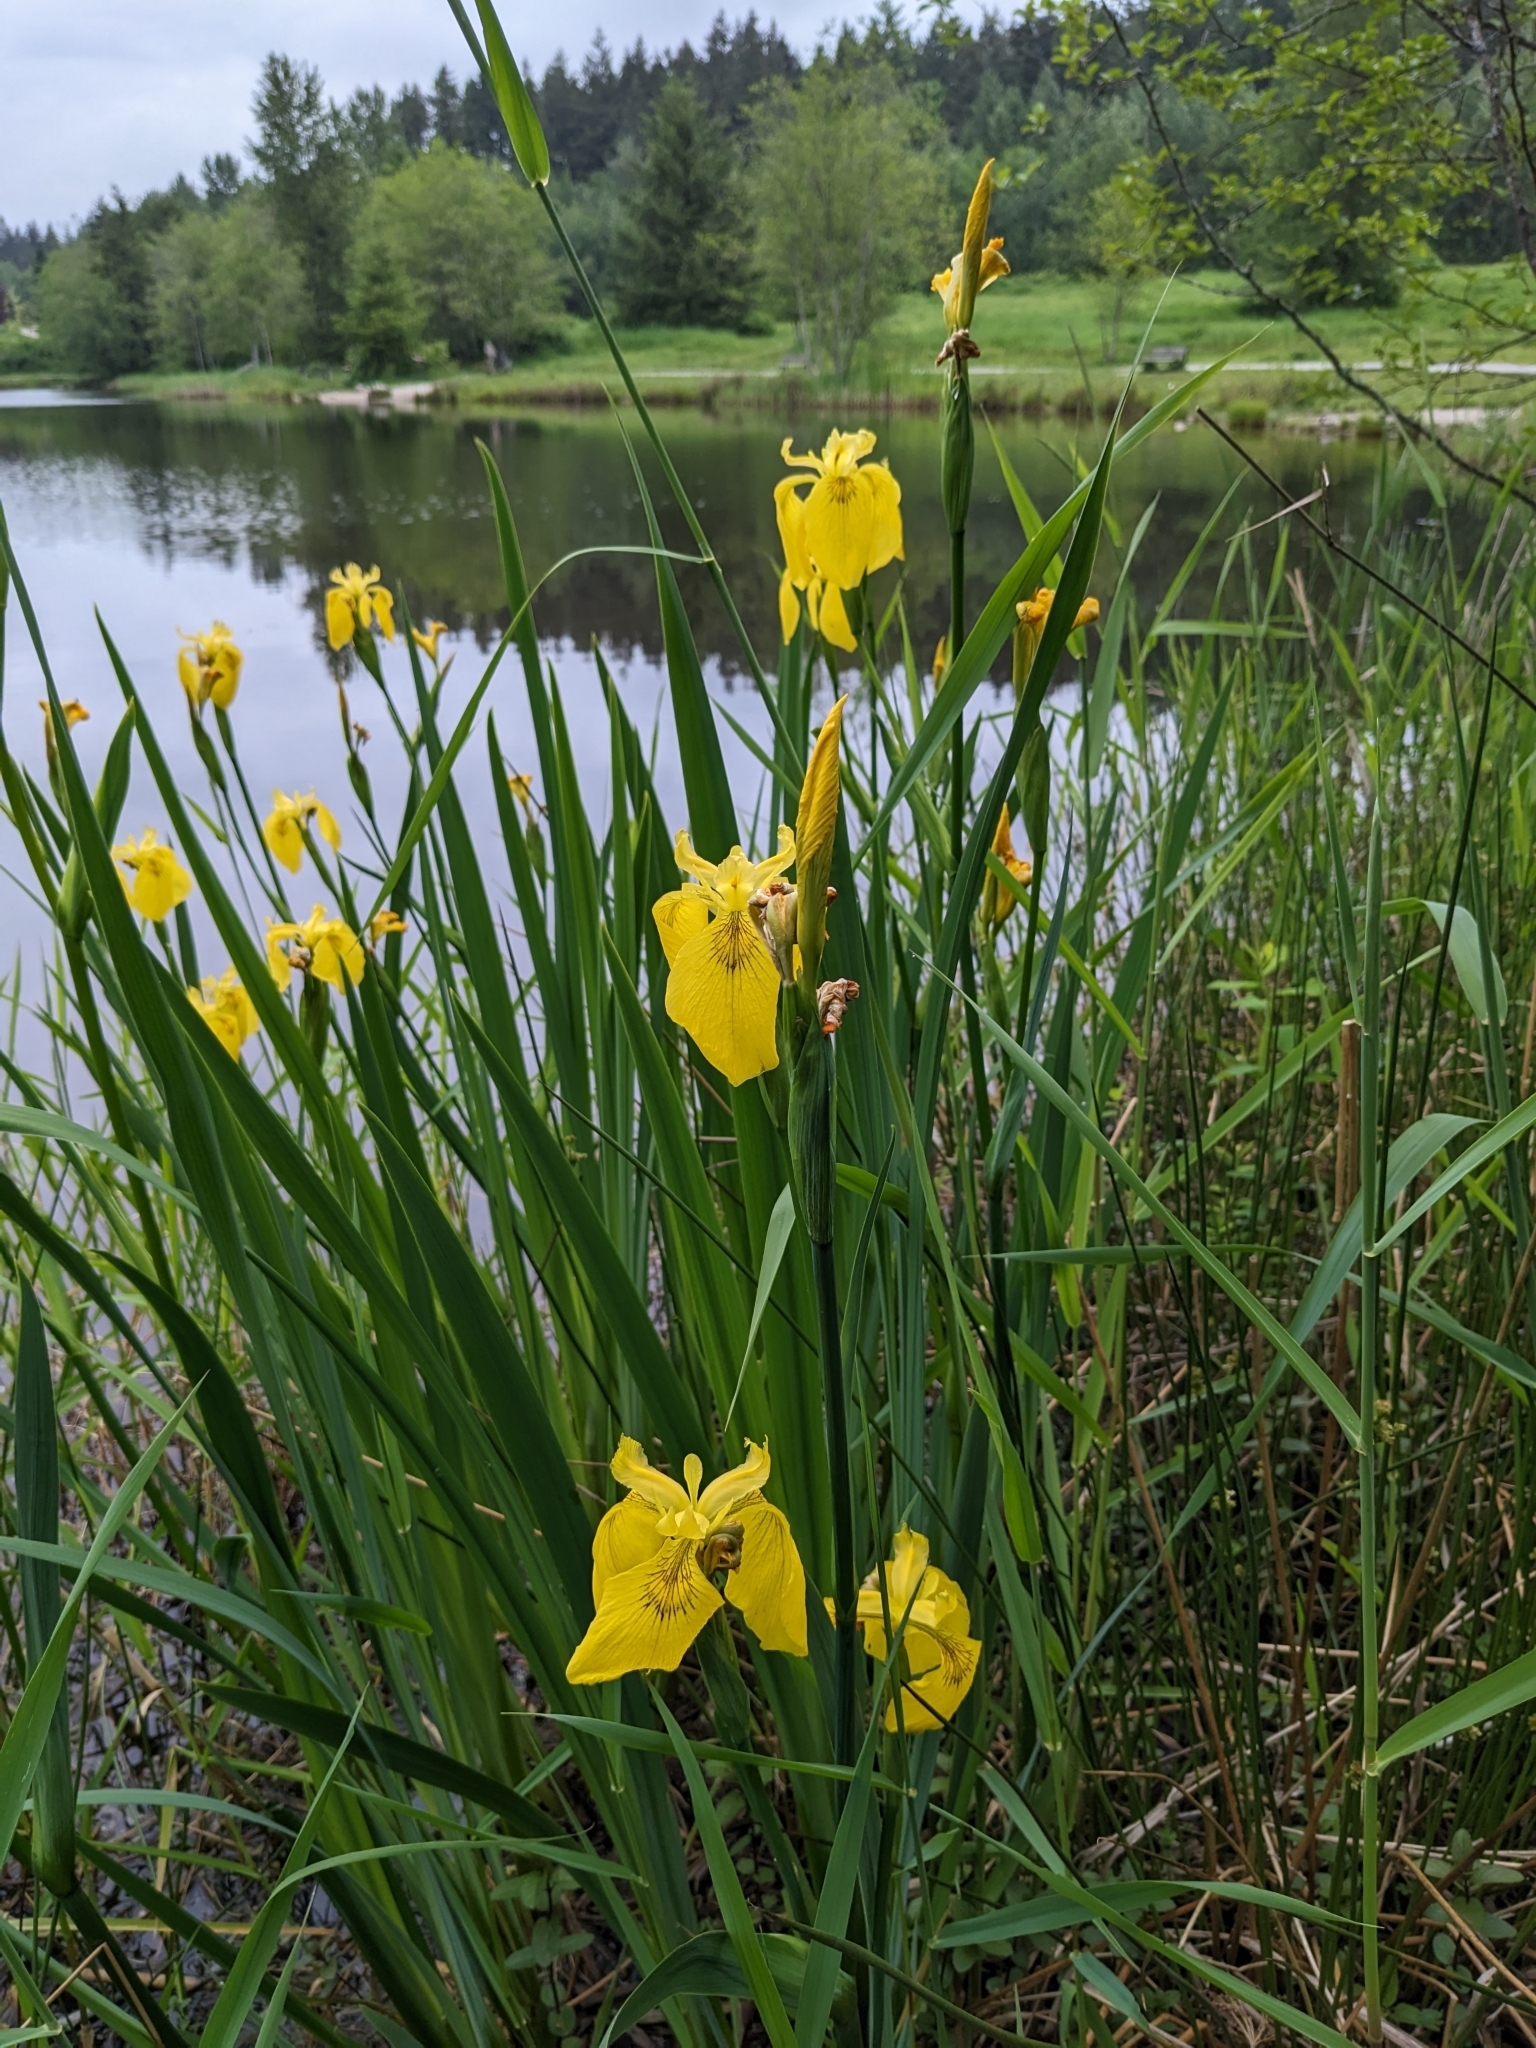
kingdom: Plantae
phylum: Tracheophyta
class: Liliopsida
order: Asparagales
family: Iridaceae
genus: Iris
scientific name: Iris pseudacorus
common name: Yellow flag
